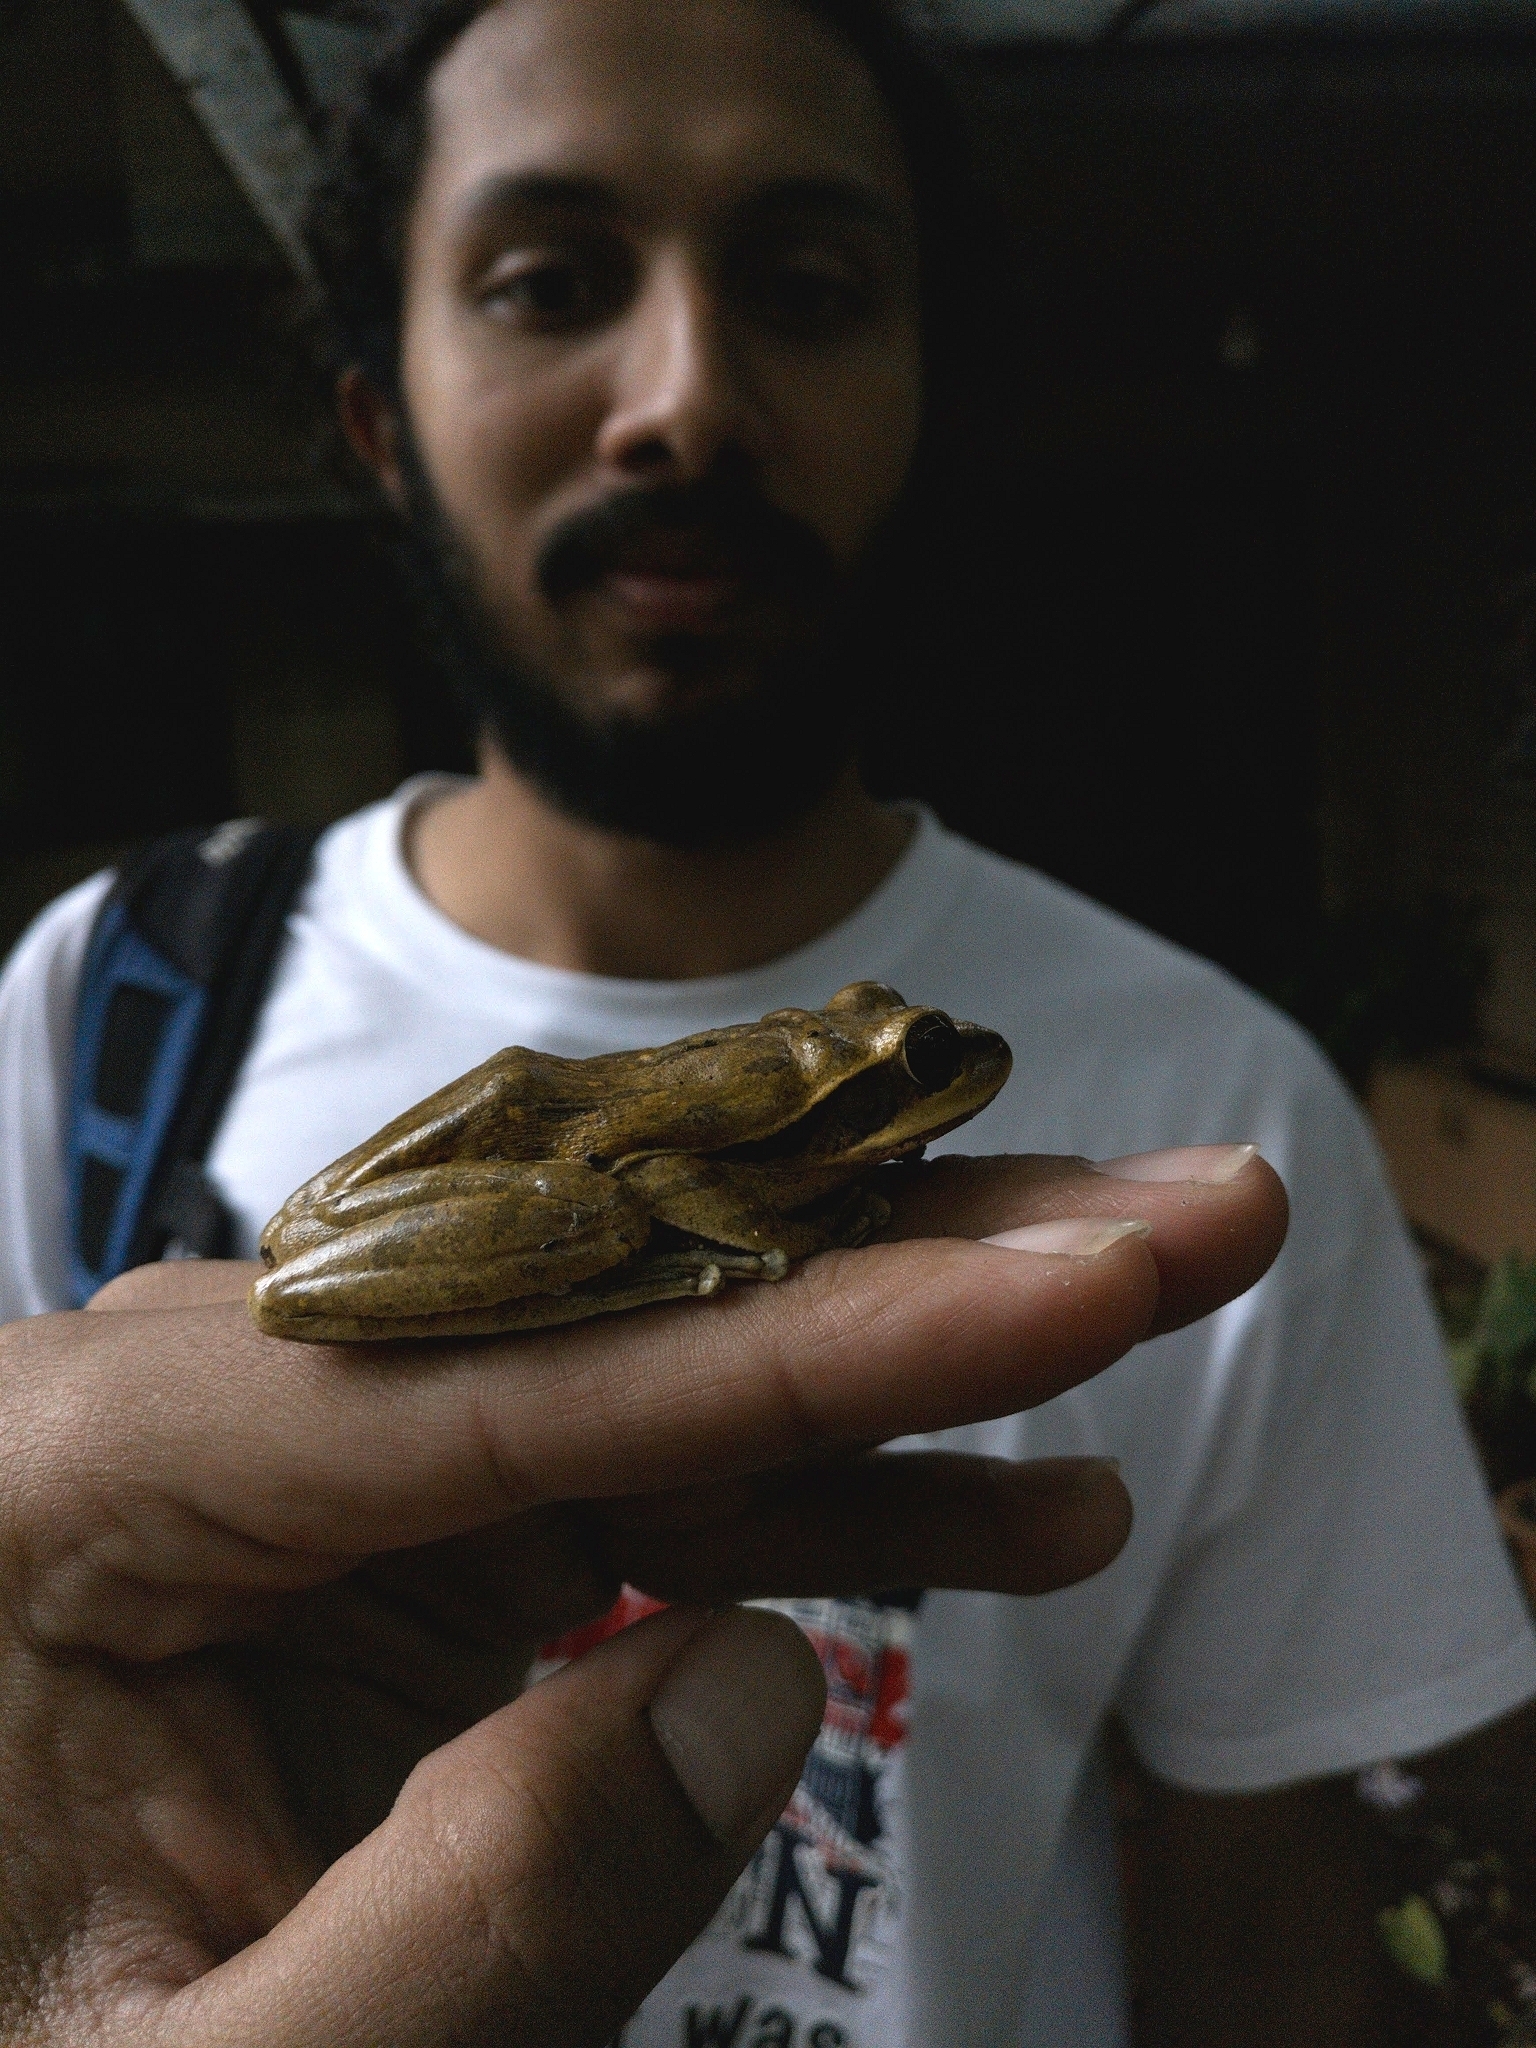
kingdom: Animalia
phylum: Chordata
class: Amphibia
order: Anura
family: Rhacophoridae
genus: Polypedates
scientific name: Polypedates maculatus
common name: Himalayan tree frog
